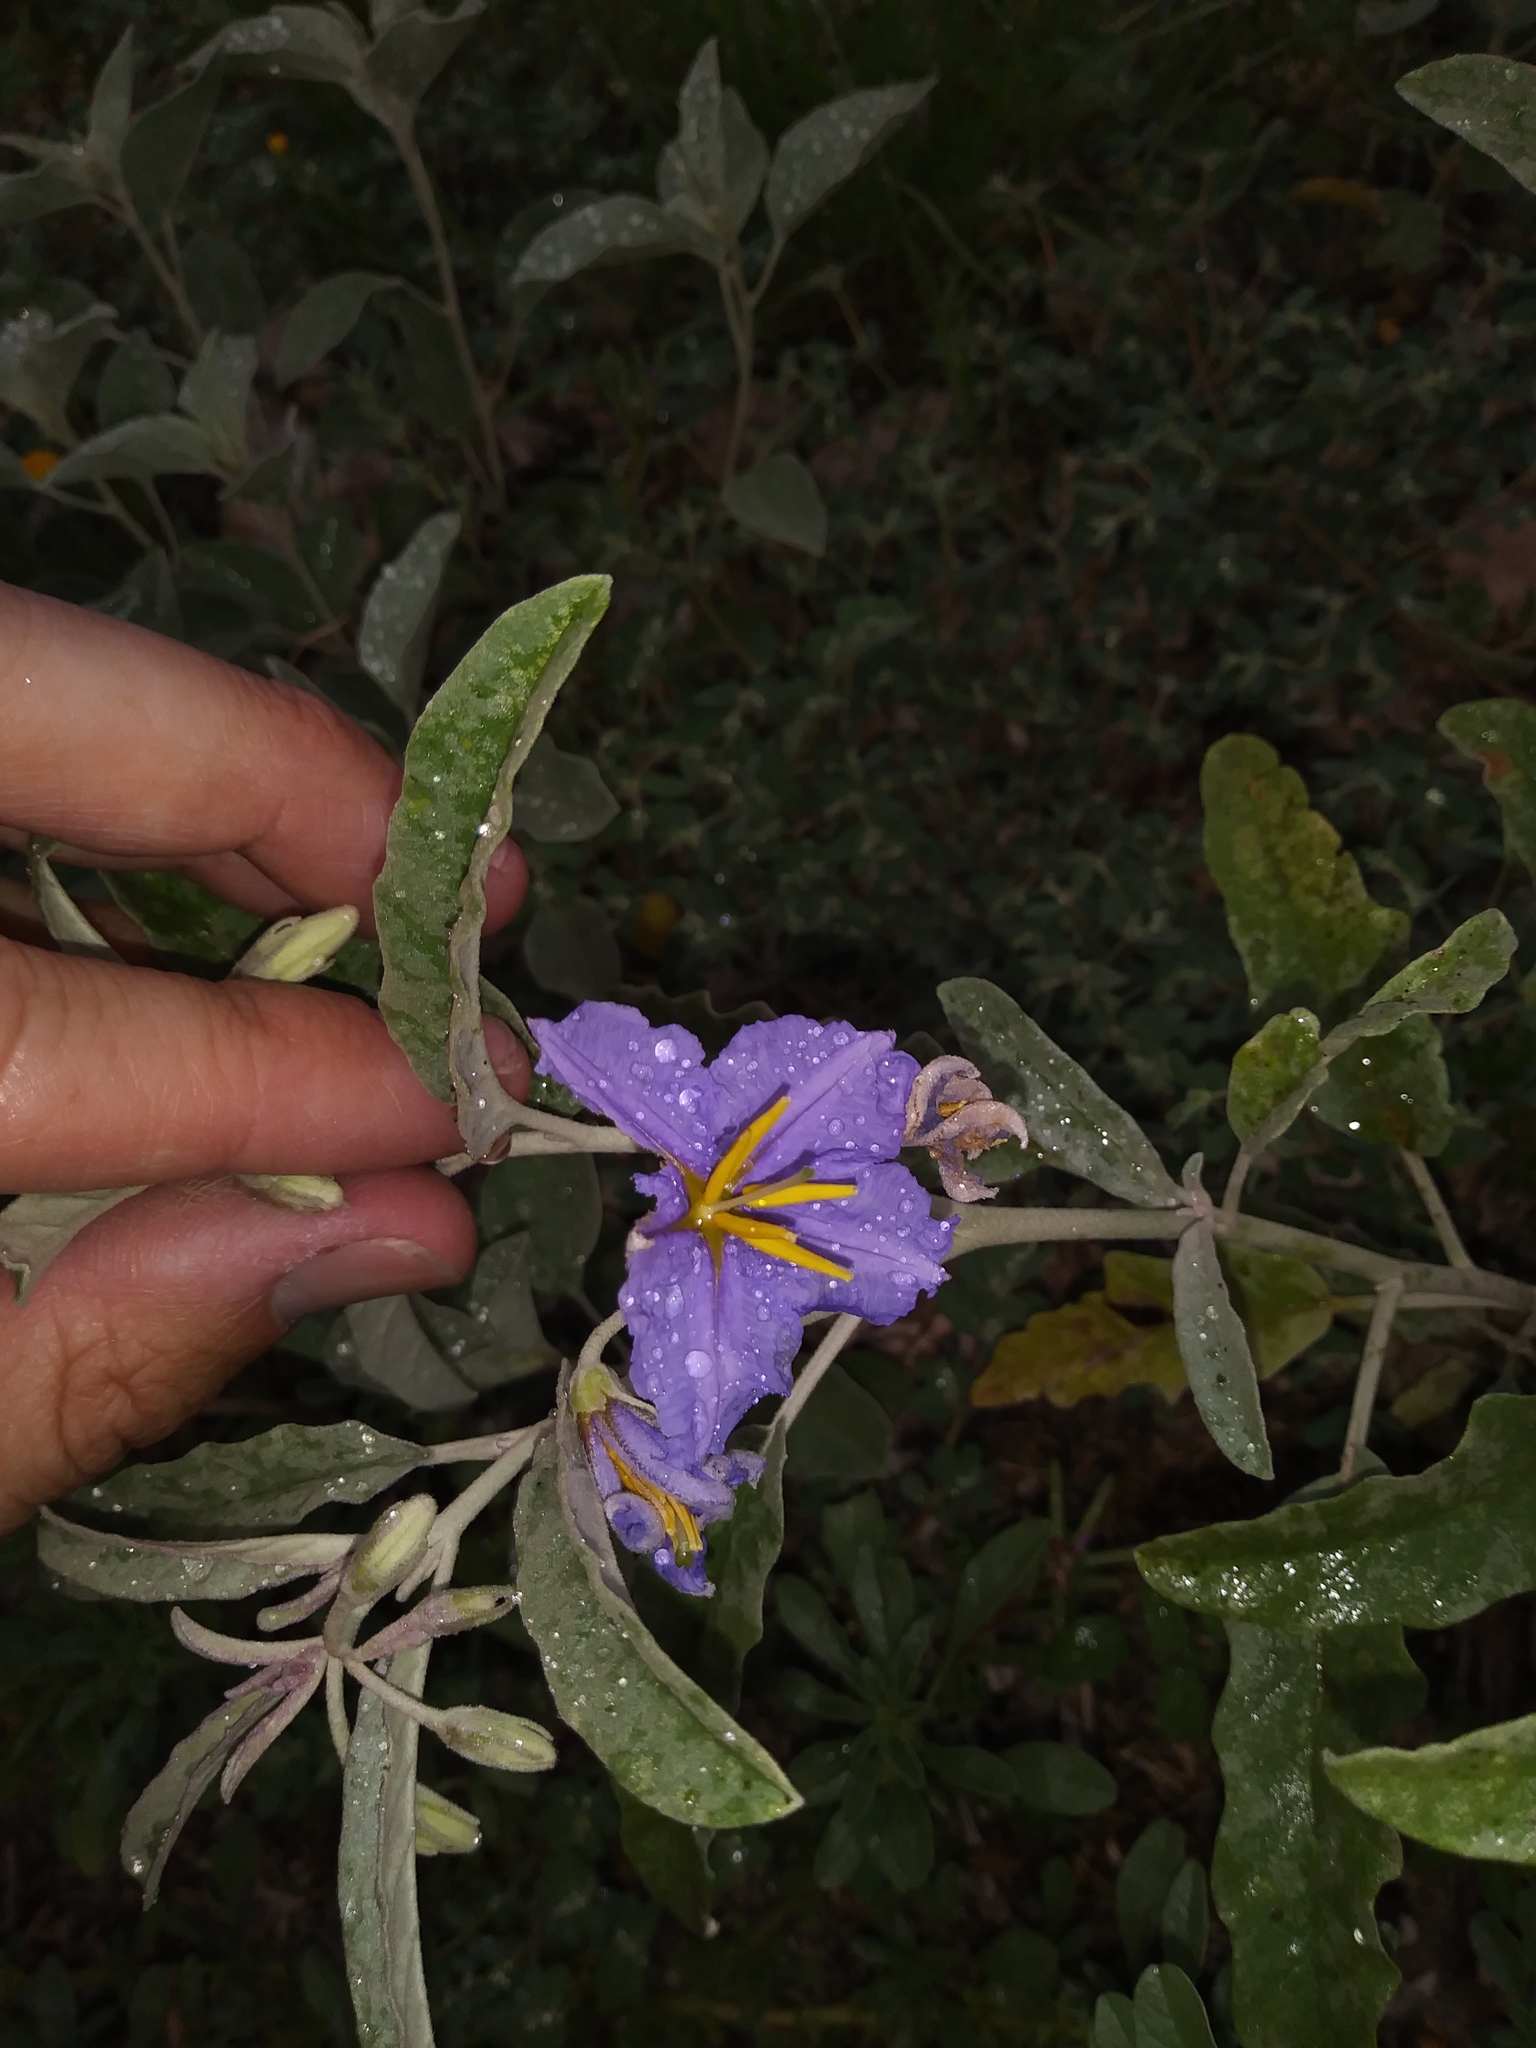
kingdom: Plantae
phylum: Tracheophyta
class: Magnoliopsida
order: Solanales
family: Solanaceae
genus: Solanum
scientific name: Solanum elaeagnifolium
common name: Silverleaf nightshade
